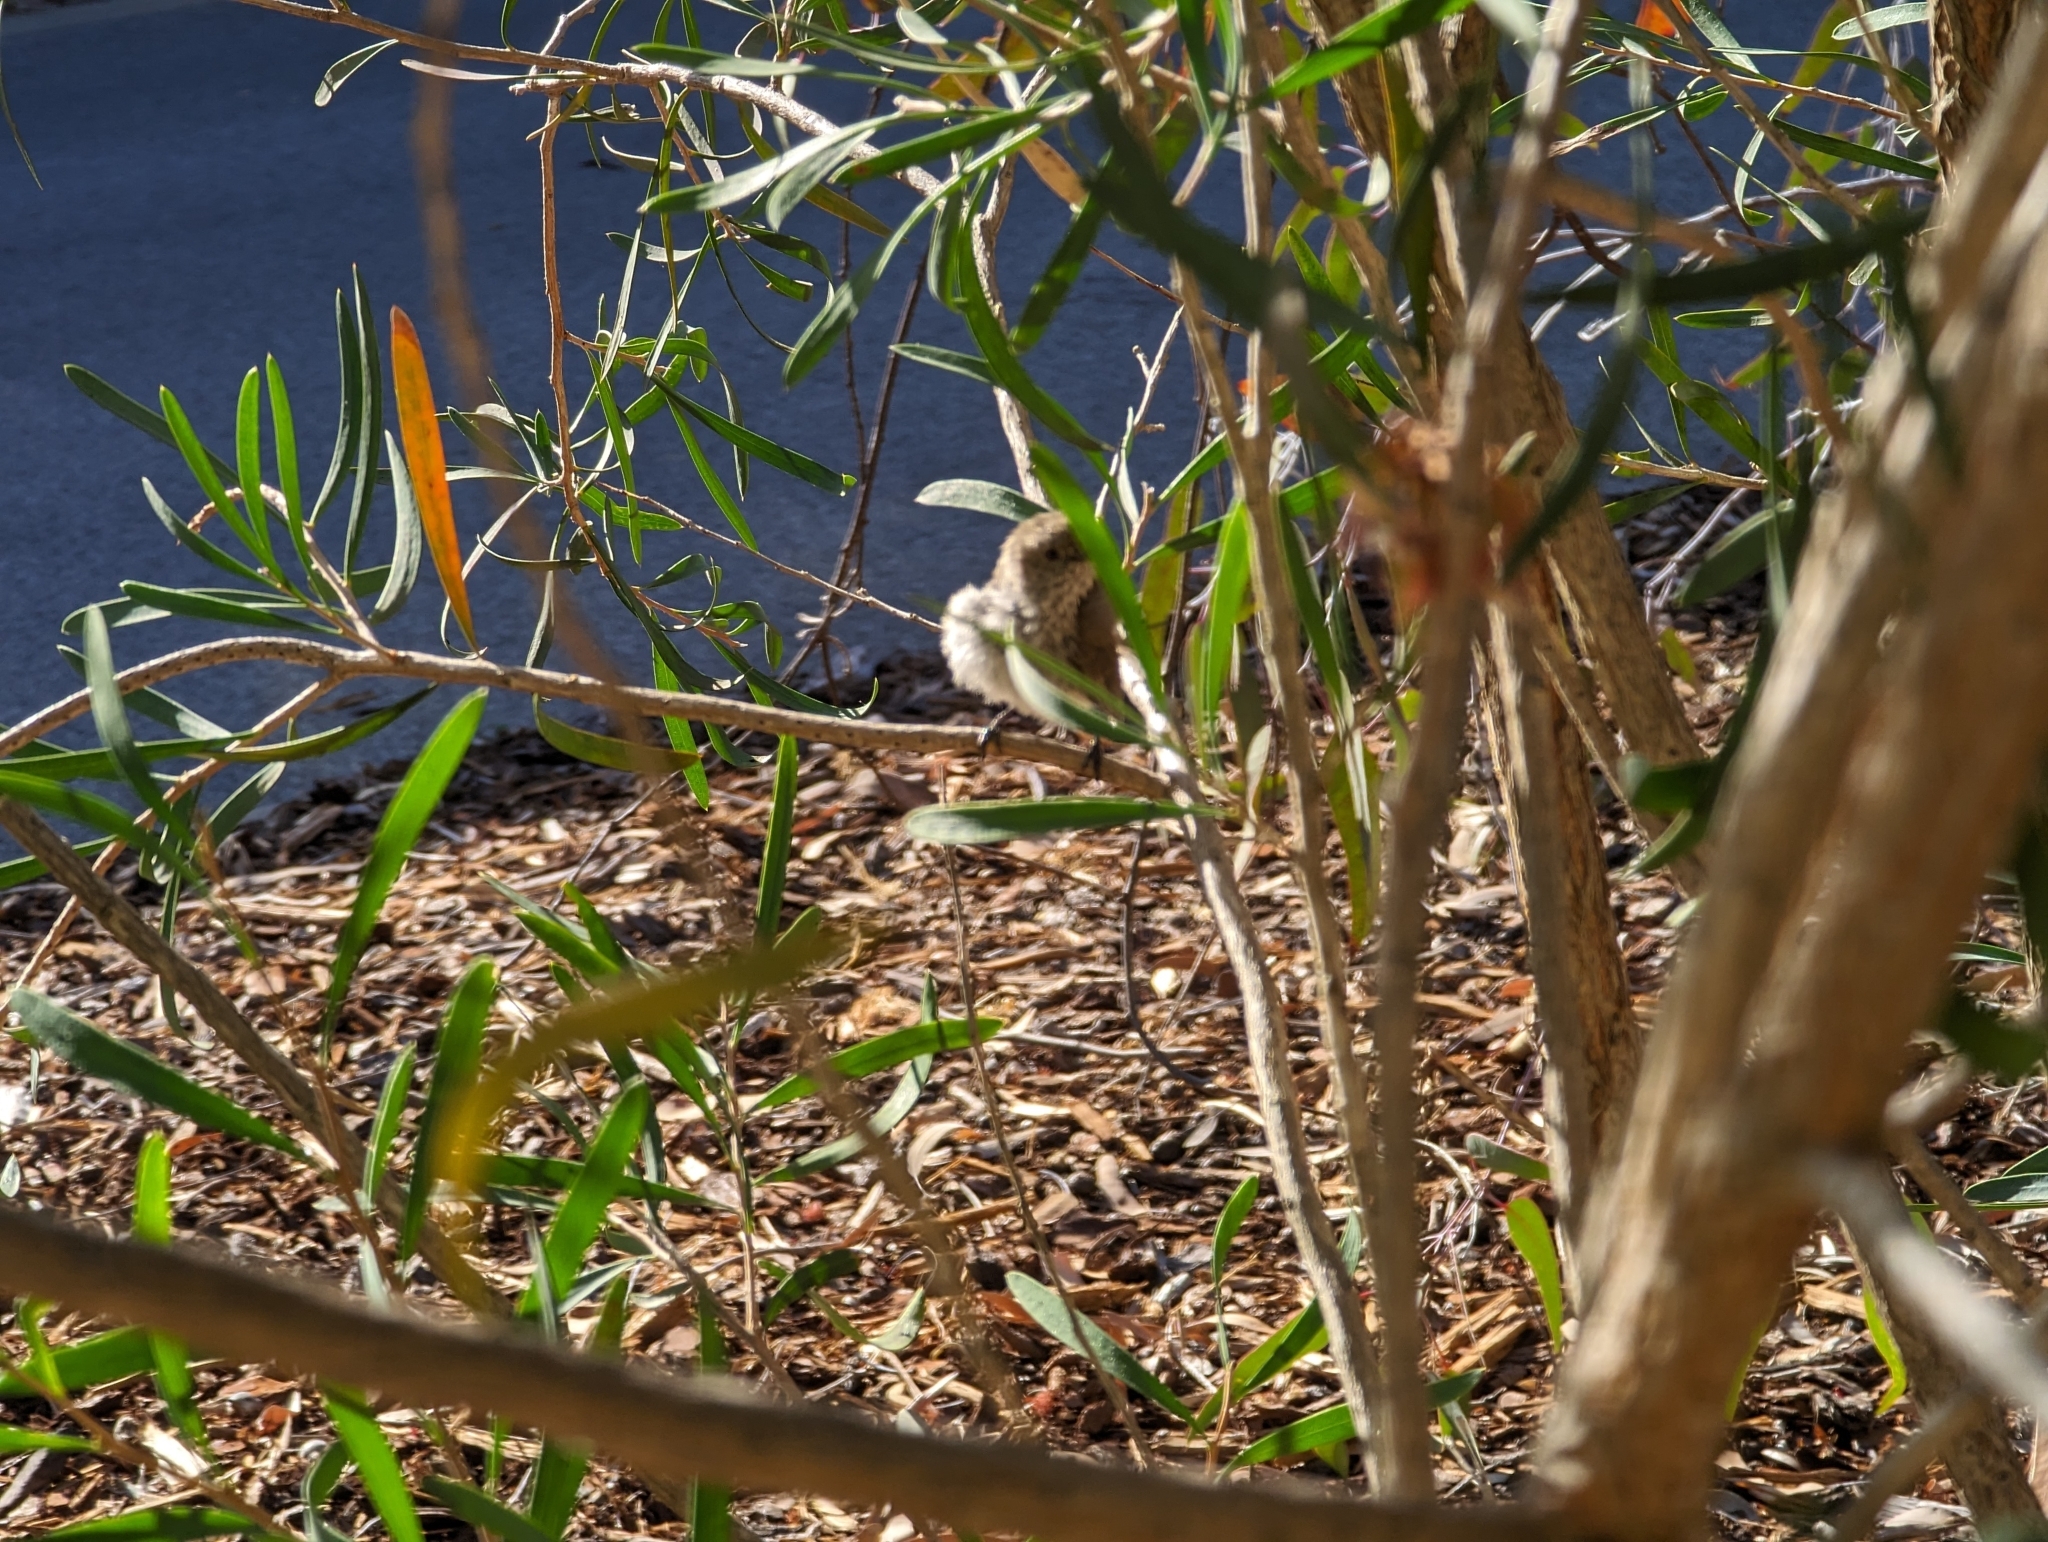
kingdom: Animalia
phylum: Chordata
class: Aves
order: Passeriformes
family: Acanthizidae
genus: Acanthiza
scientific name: Acanthiza apicalis
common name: Inland thornbill
